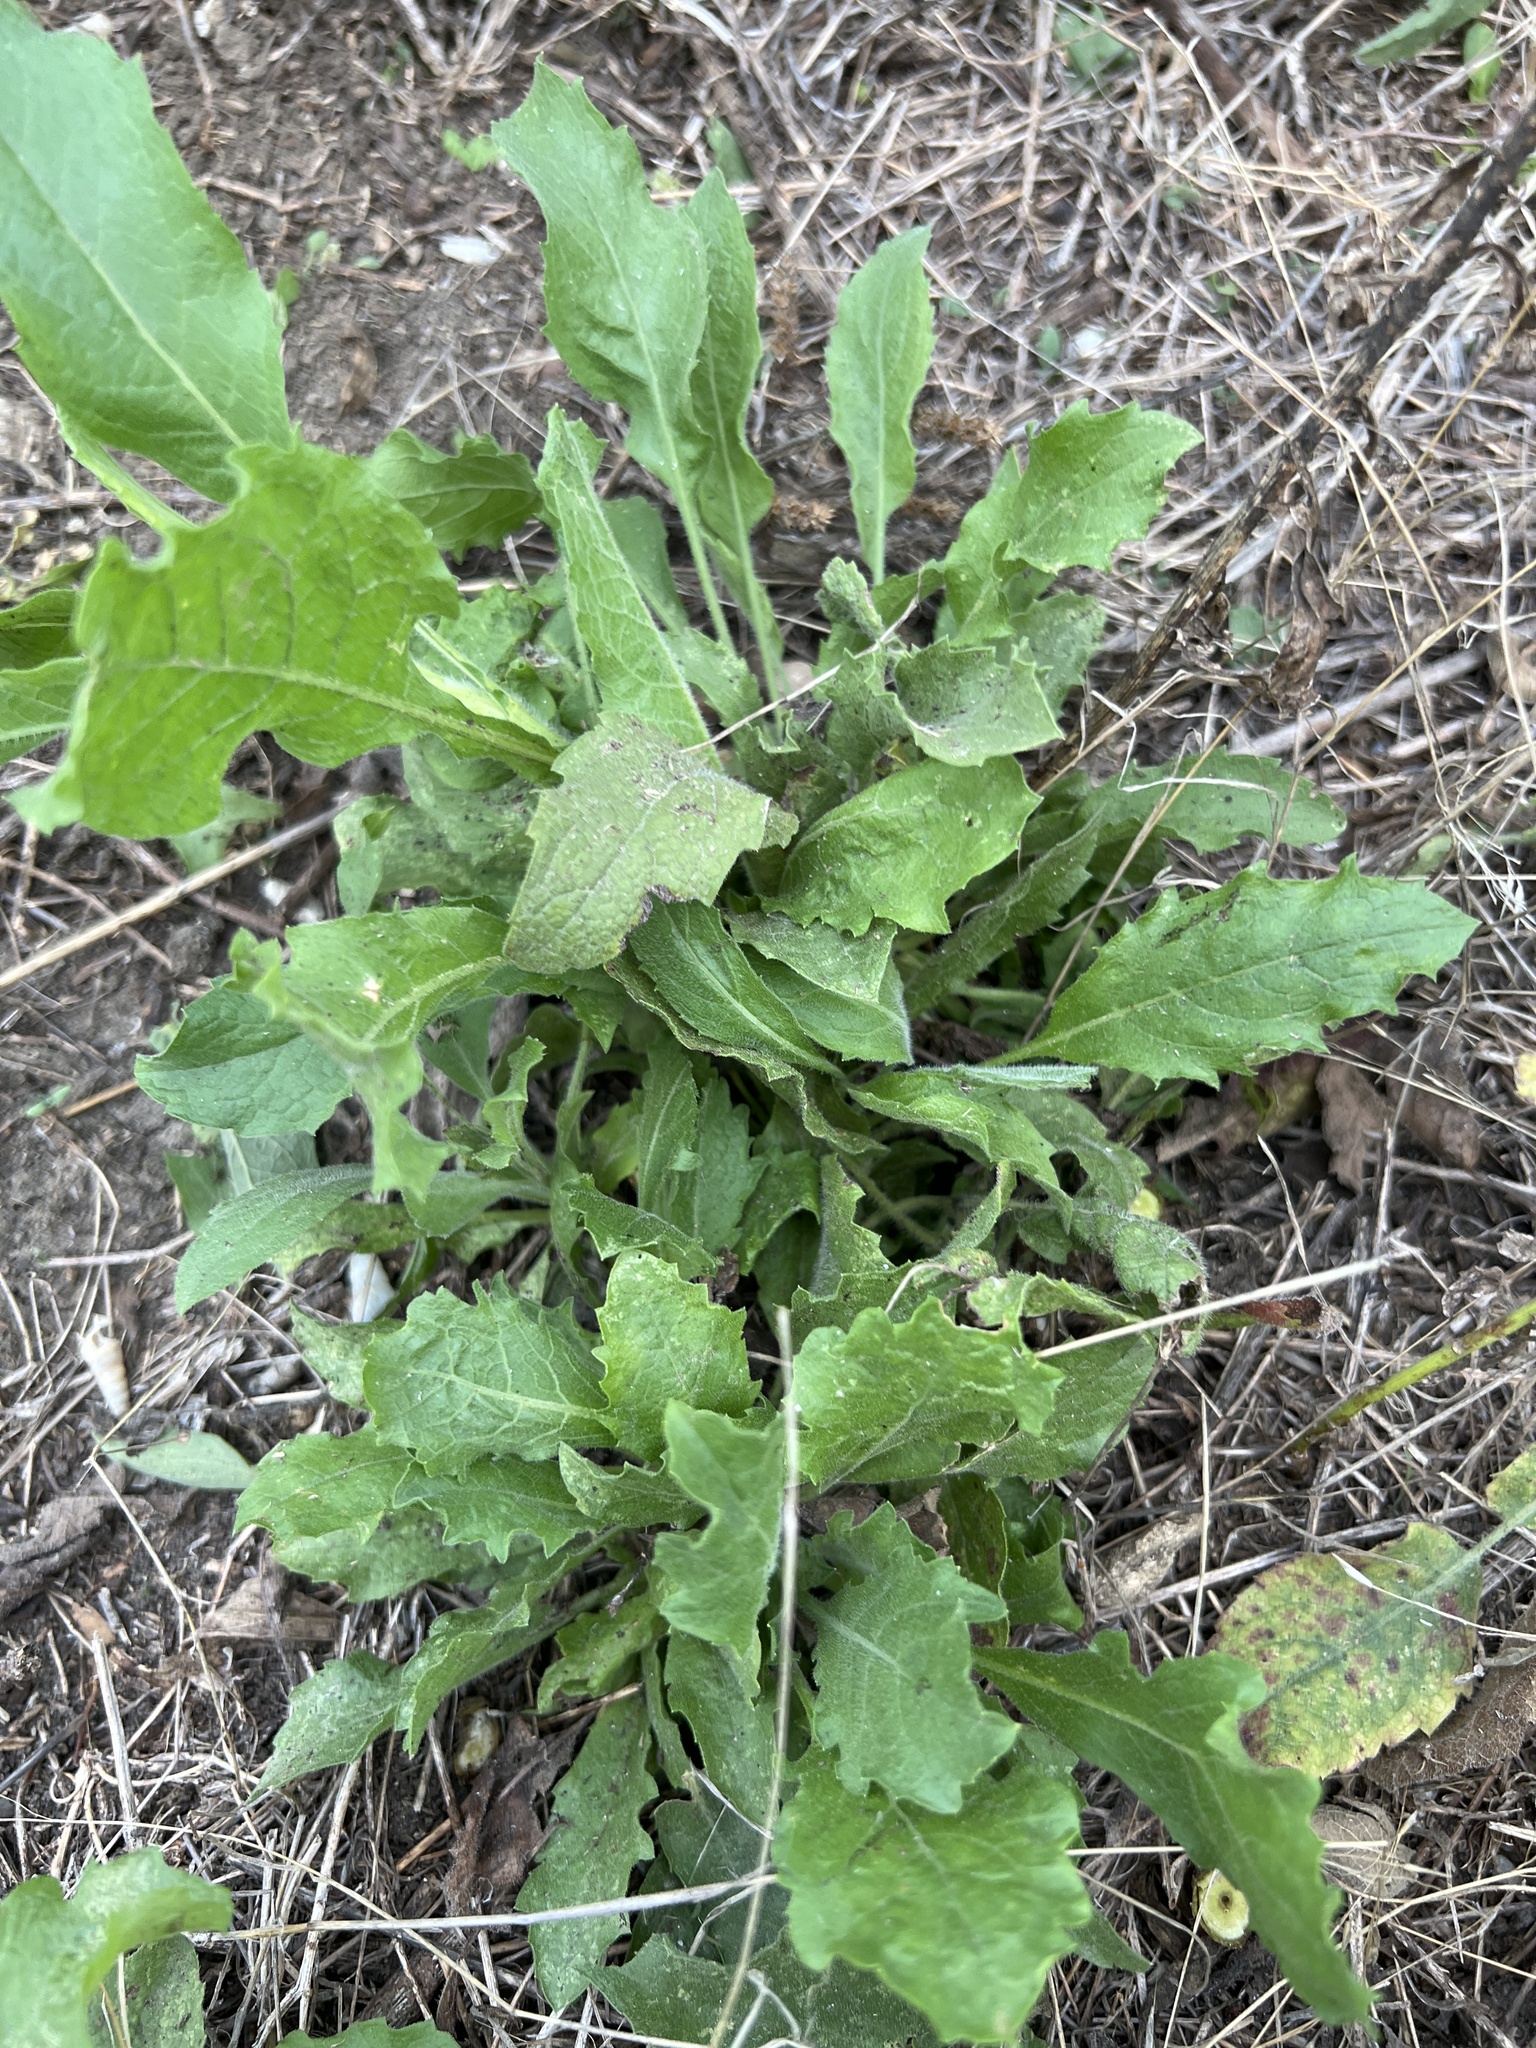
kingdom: Plantae
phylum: Tracheophyta
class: Magnoliopsida
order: Asterales
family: Asteraceae
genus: Heterotheca
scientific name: Heterotheca subaxillaris
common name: Camphorweed
